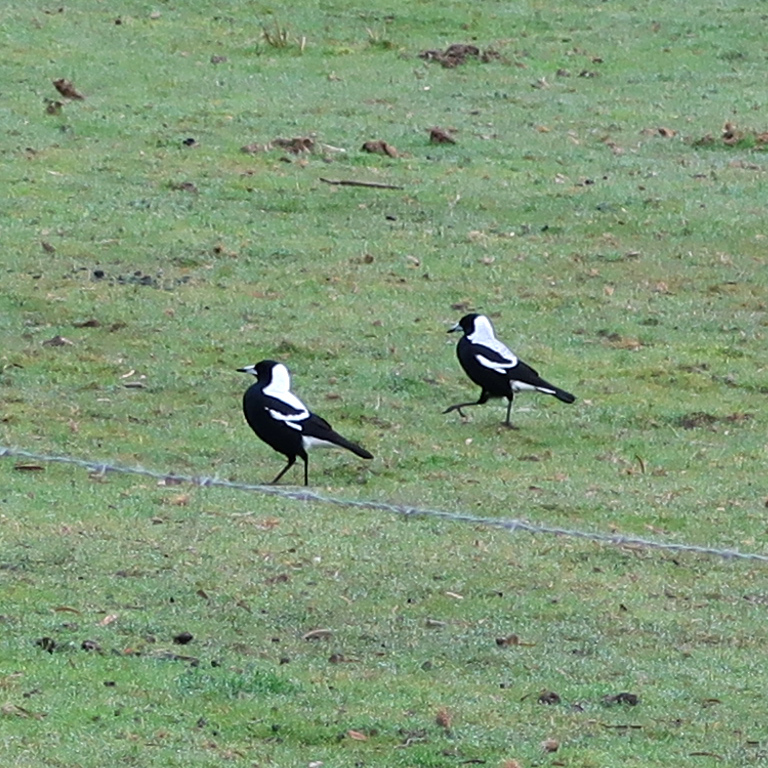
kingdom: Animalia
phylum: Chordata
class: Aves
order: Passeriformes
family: Cracticidae
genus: Gymnorhina
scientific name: Gymnorhina tibicen
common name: Australian magpie
